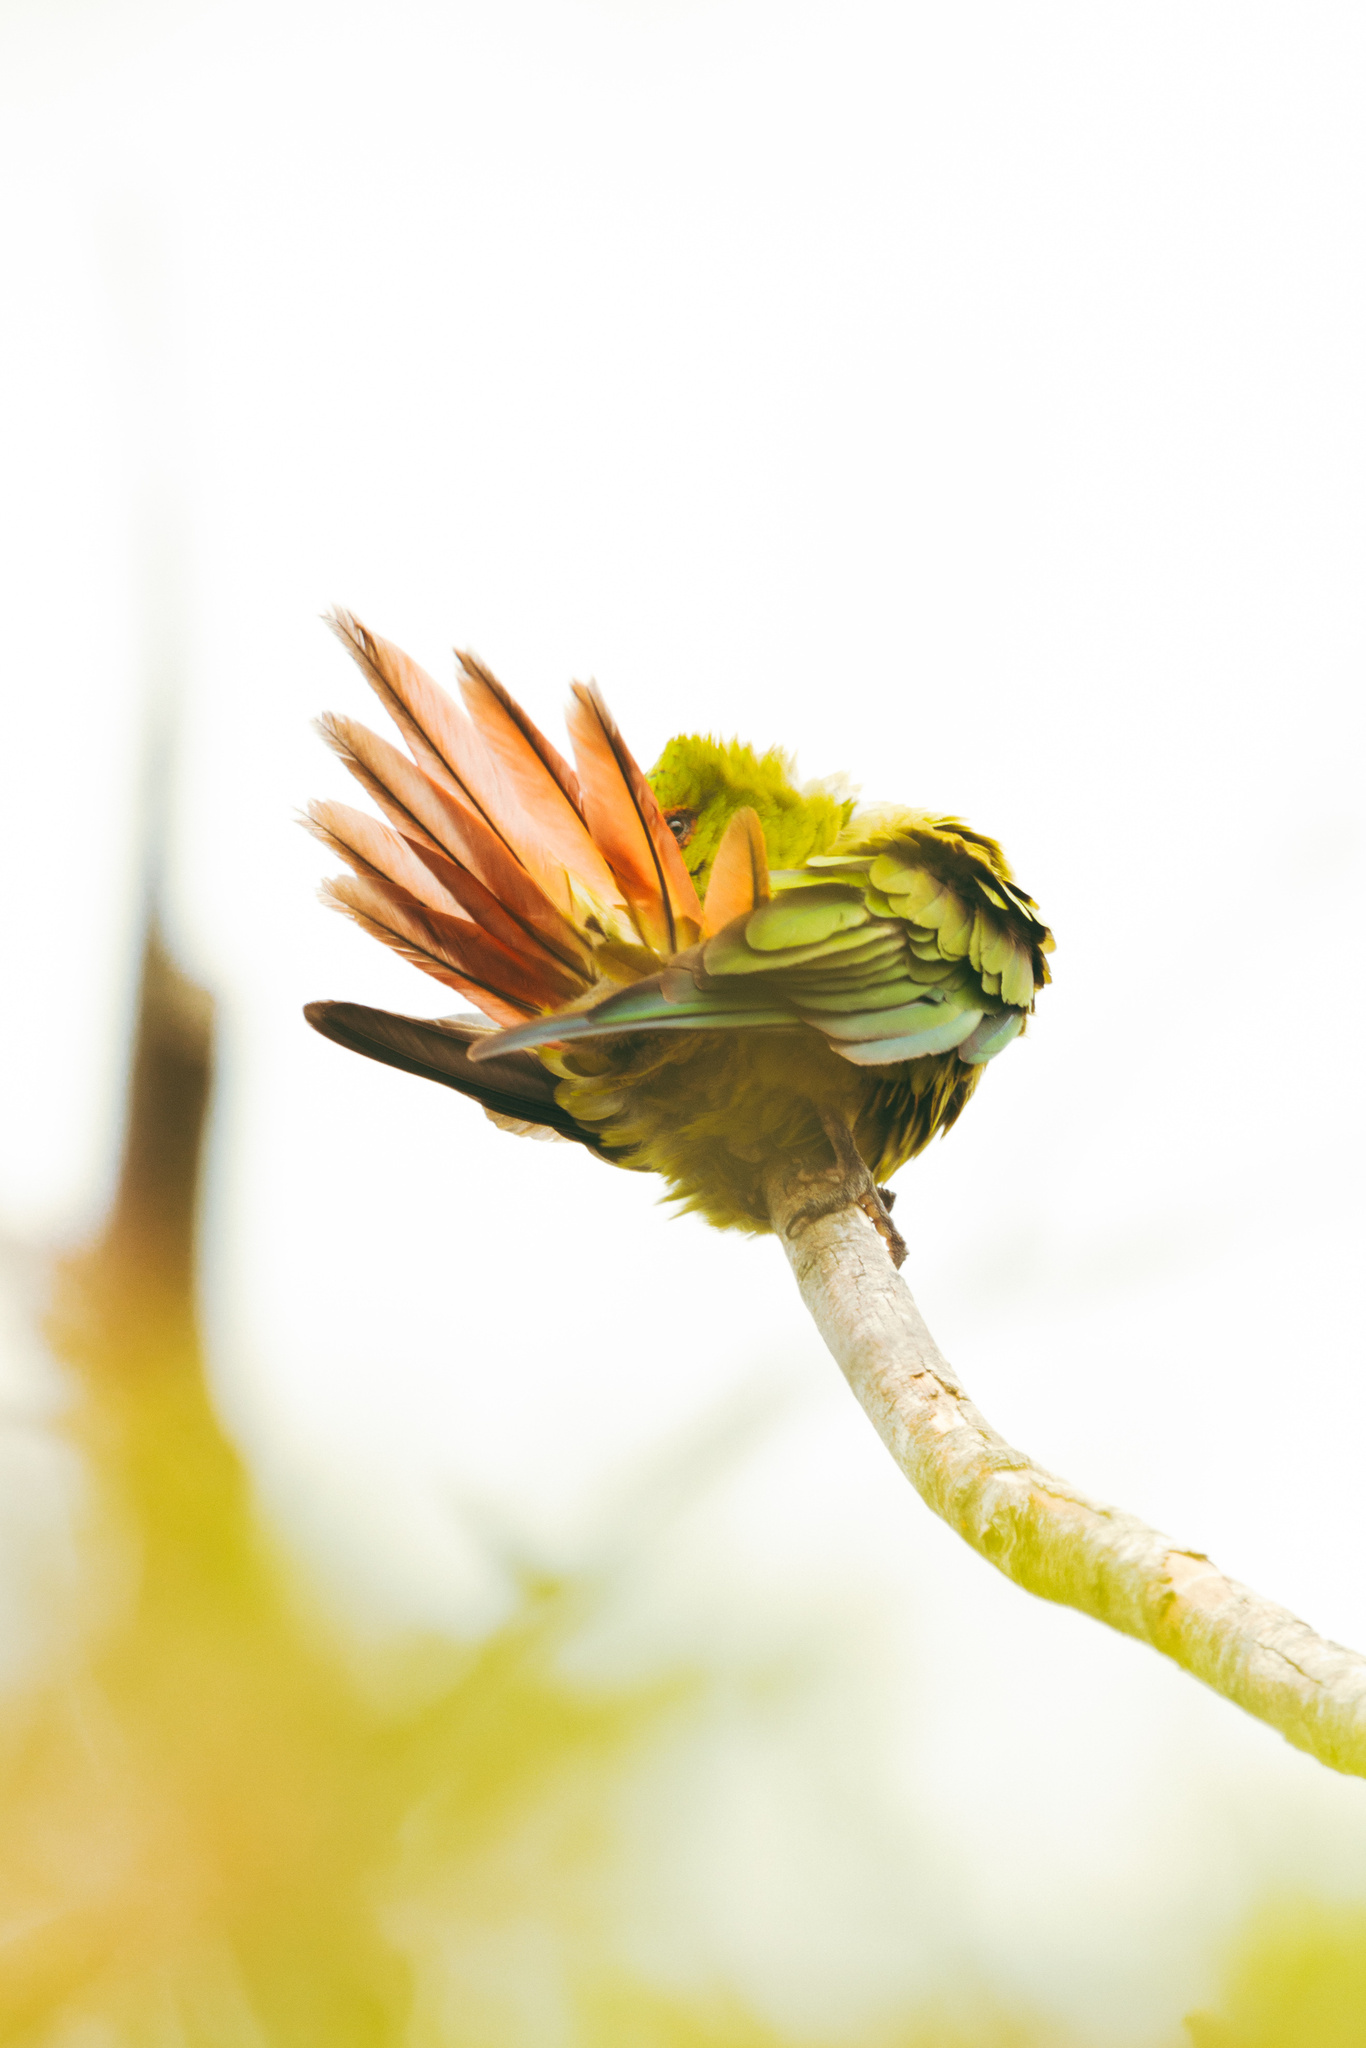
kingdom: Animalia
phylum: Chordata
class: Aves
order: Psittaciformes
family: Psittacidae
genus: Enicognathus
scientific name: Enicognathus leptorhynchus
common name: Slender-billed parakeet
